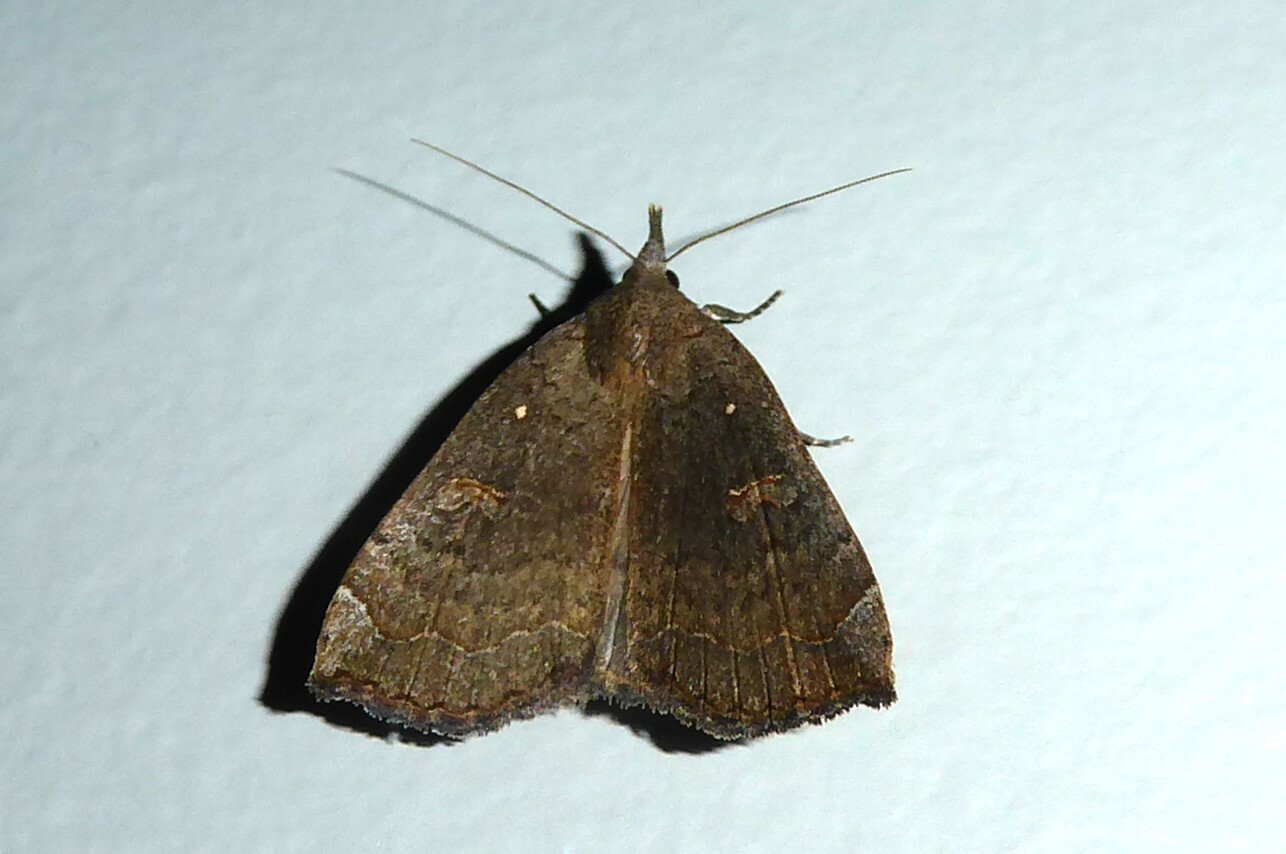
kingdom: Animalia
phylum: Arthropoda
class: Insecta
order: Lepidoptera
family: Erebidae
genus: Rhapsa
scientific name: Rhapsa scotosialis
